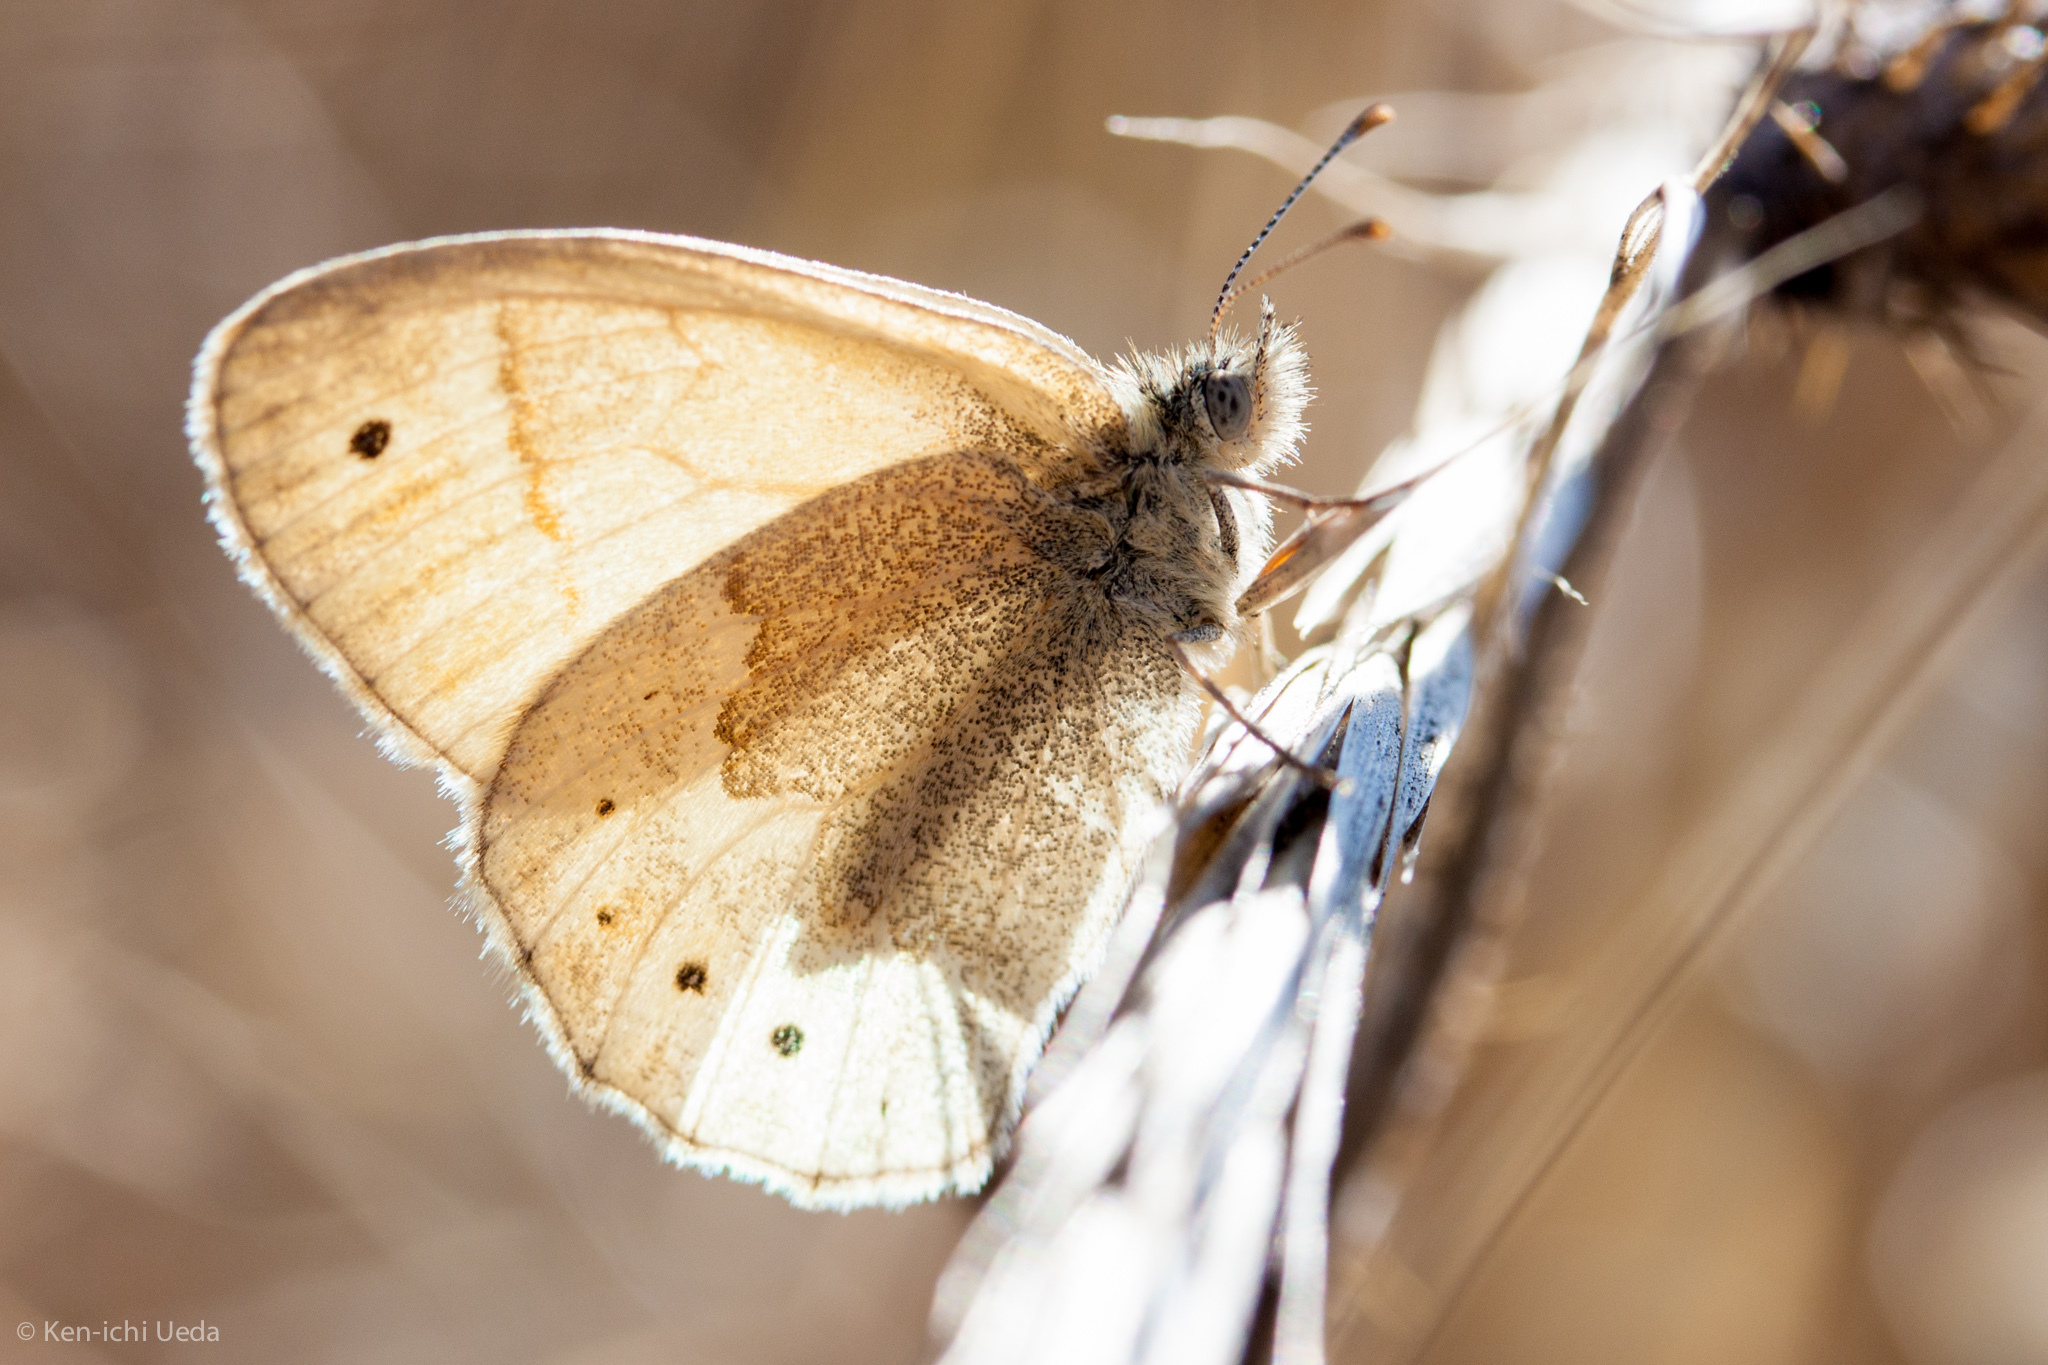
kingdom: Animalia
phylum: Arthropoda
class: Insecta
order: Lepidoptera
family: Nymphalidae
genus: Coenonympha
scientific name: Coenonympha california
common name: Common ringlet
